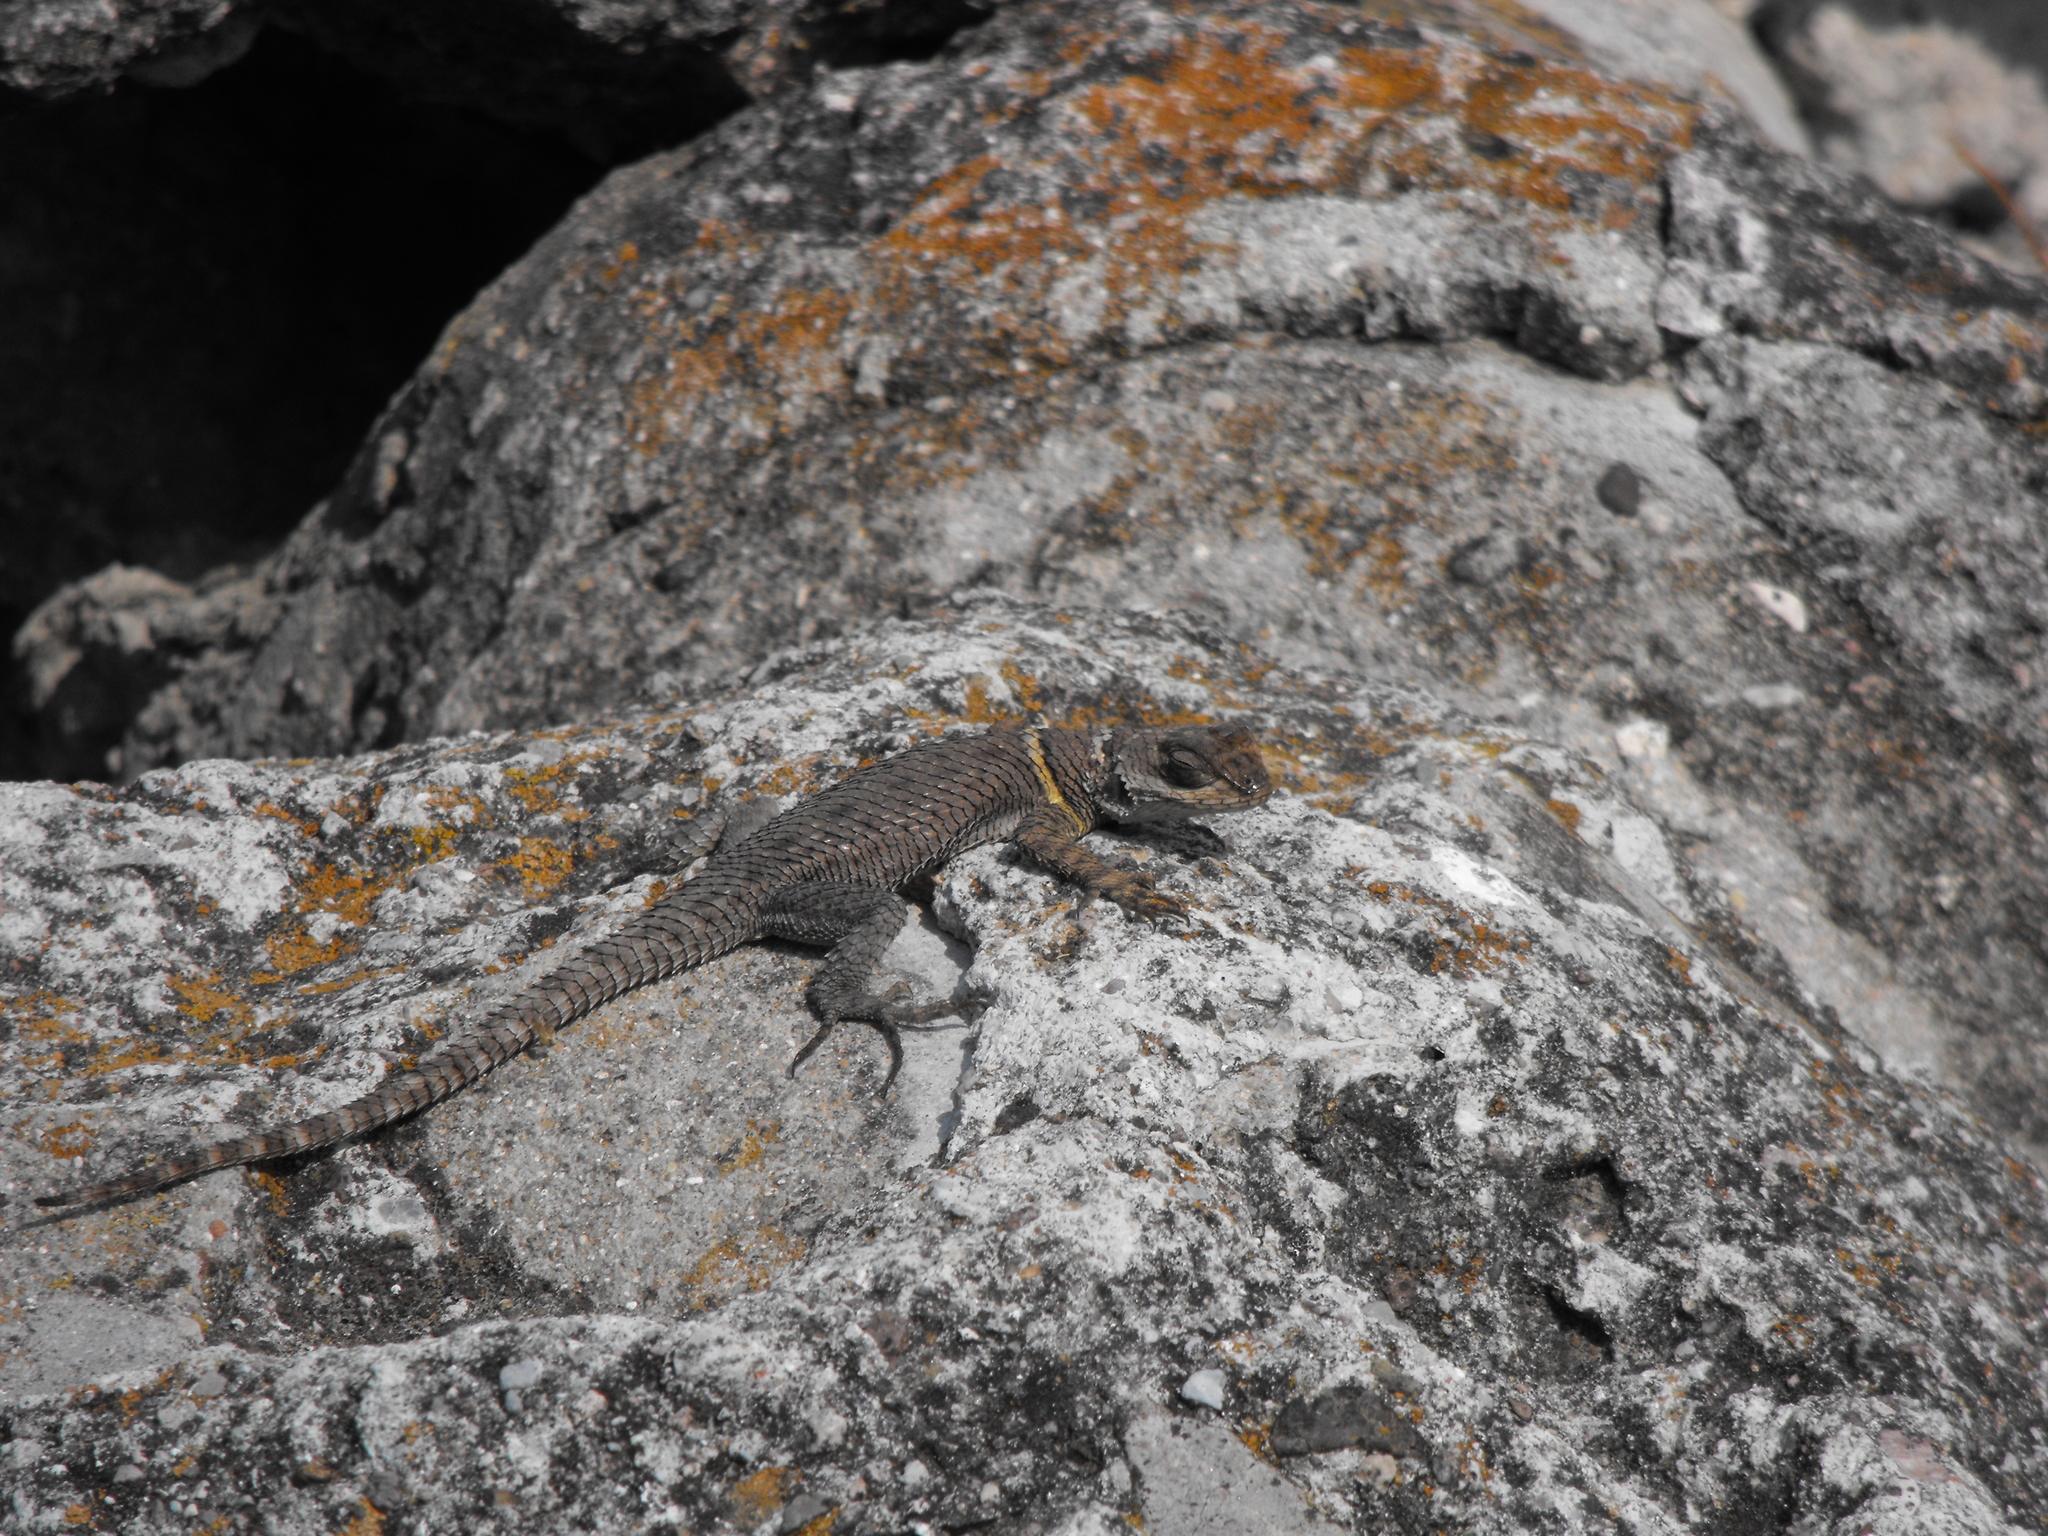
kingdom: Animalia
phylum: Chordata
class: Squamata
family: Phrynosomatidae
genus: Sceloporus
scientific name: Sceloporus aureolus
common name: Eastern cleft spiny lizard
